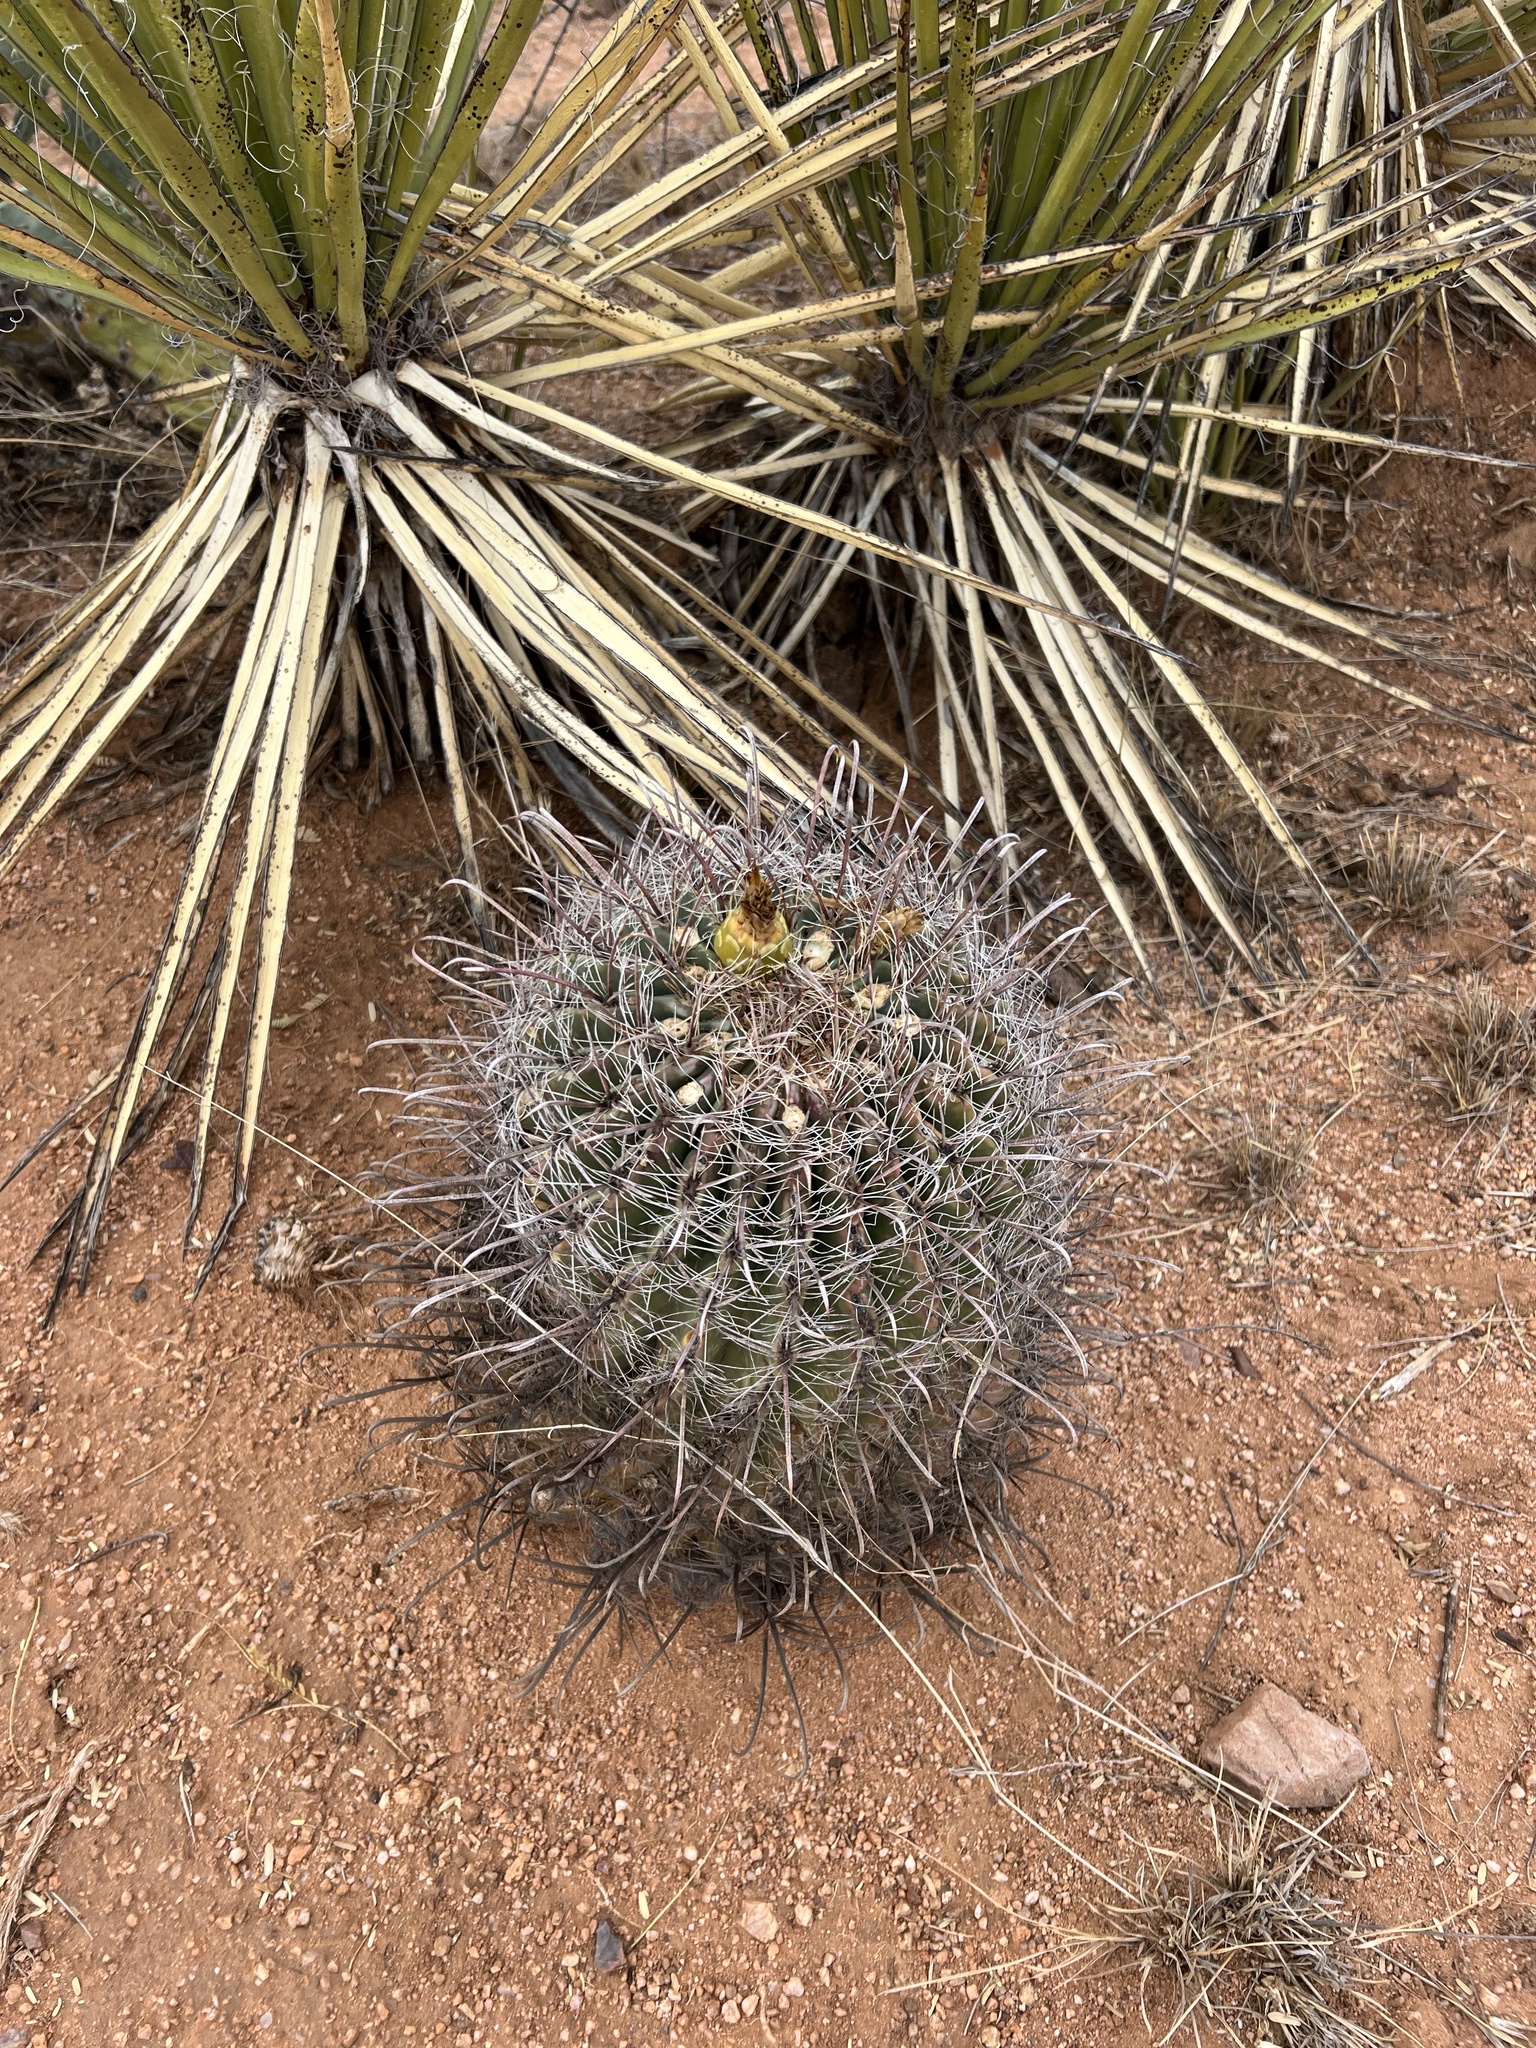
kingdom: Plantae
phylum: Tracheophyta
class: Magnoliopsida
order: Caryophyllales
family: Cactaceae
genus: Ferocactus
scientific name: Ferocactus wislizeni
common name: Candy barrel cactus
